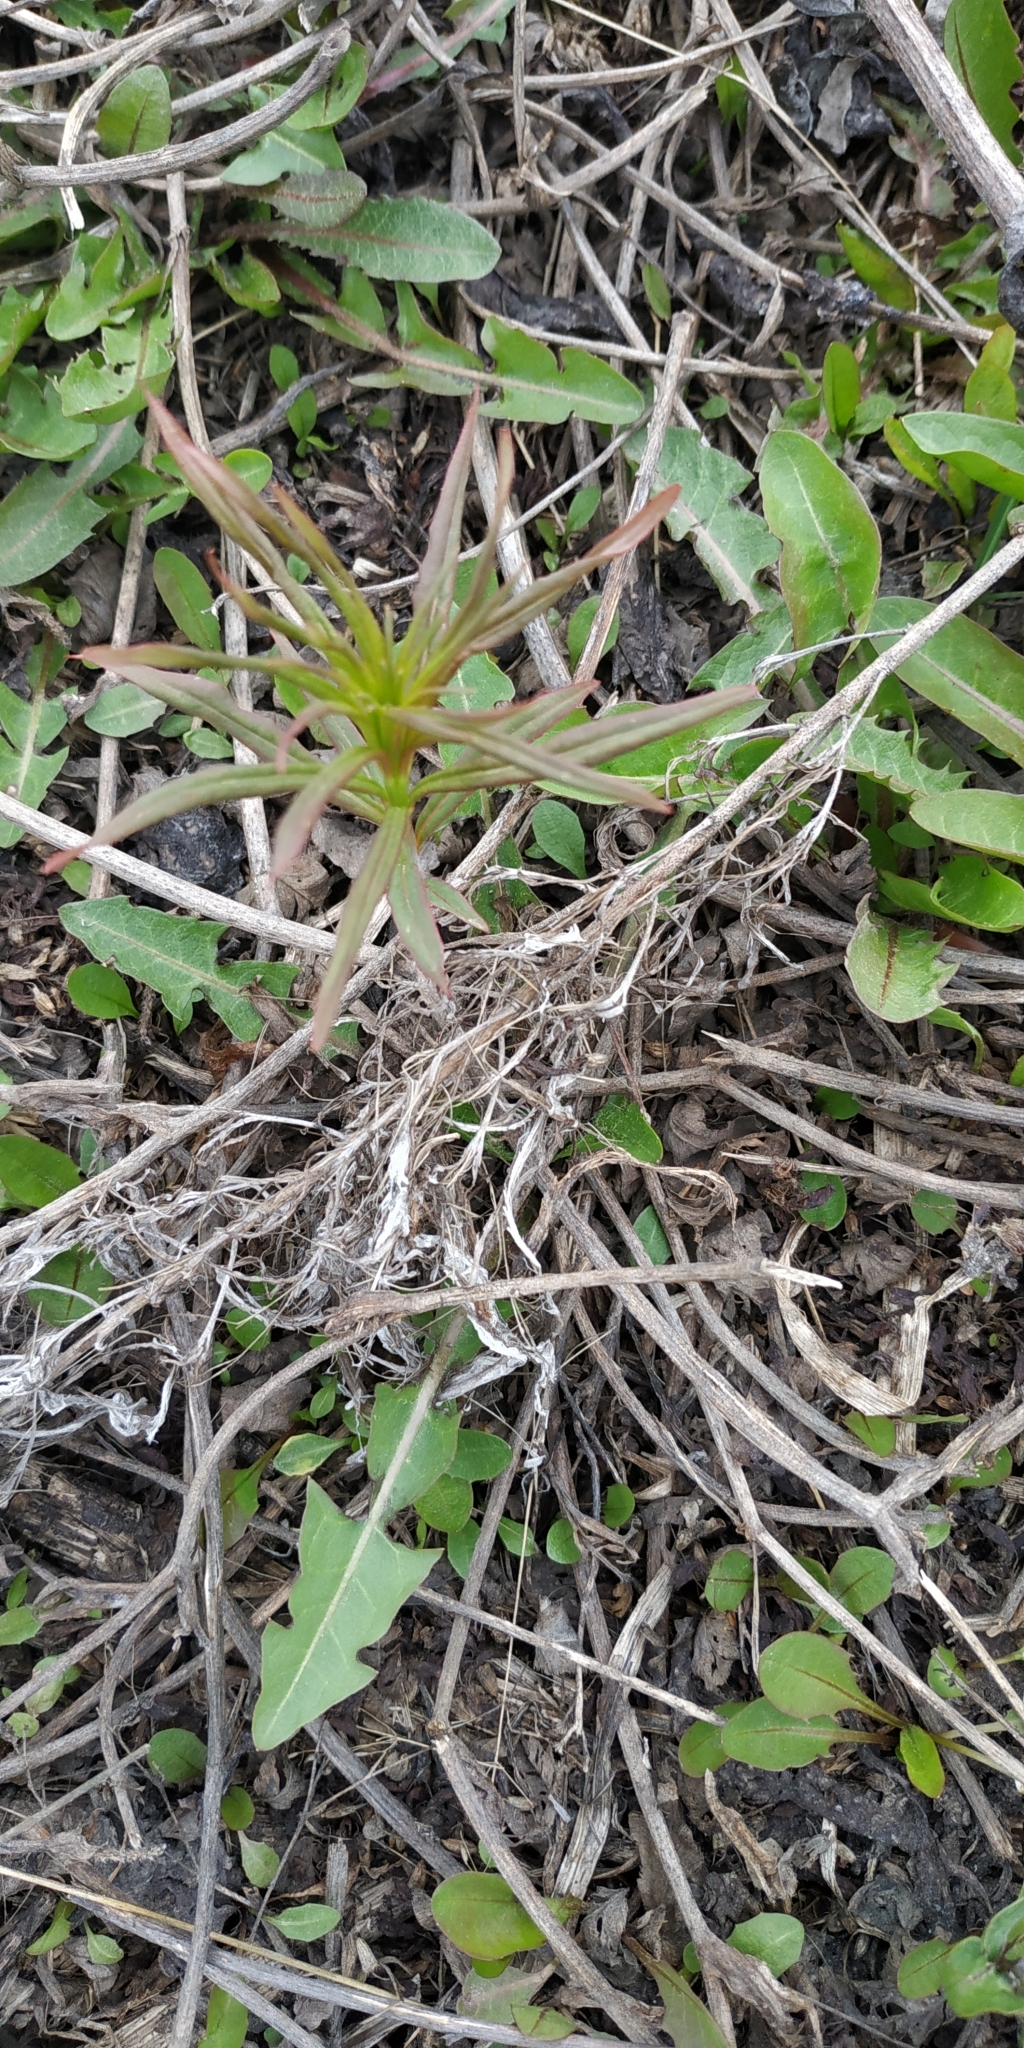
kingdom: Plantae
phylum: Tracheophyta
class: Magnoliopsida
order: Lamiales
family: Plantaginaceae
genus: Linaria
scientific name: Linaria vulgaris
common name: Butter and eggs
